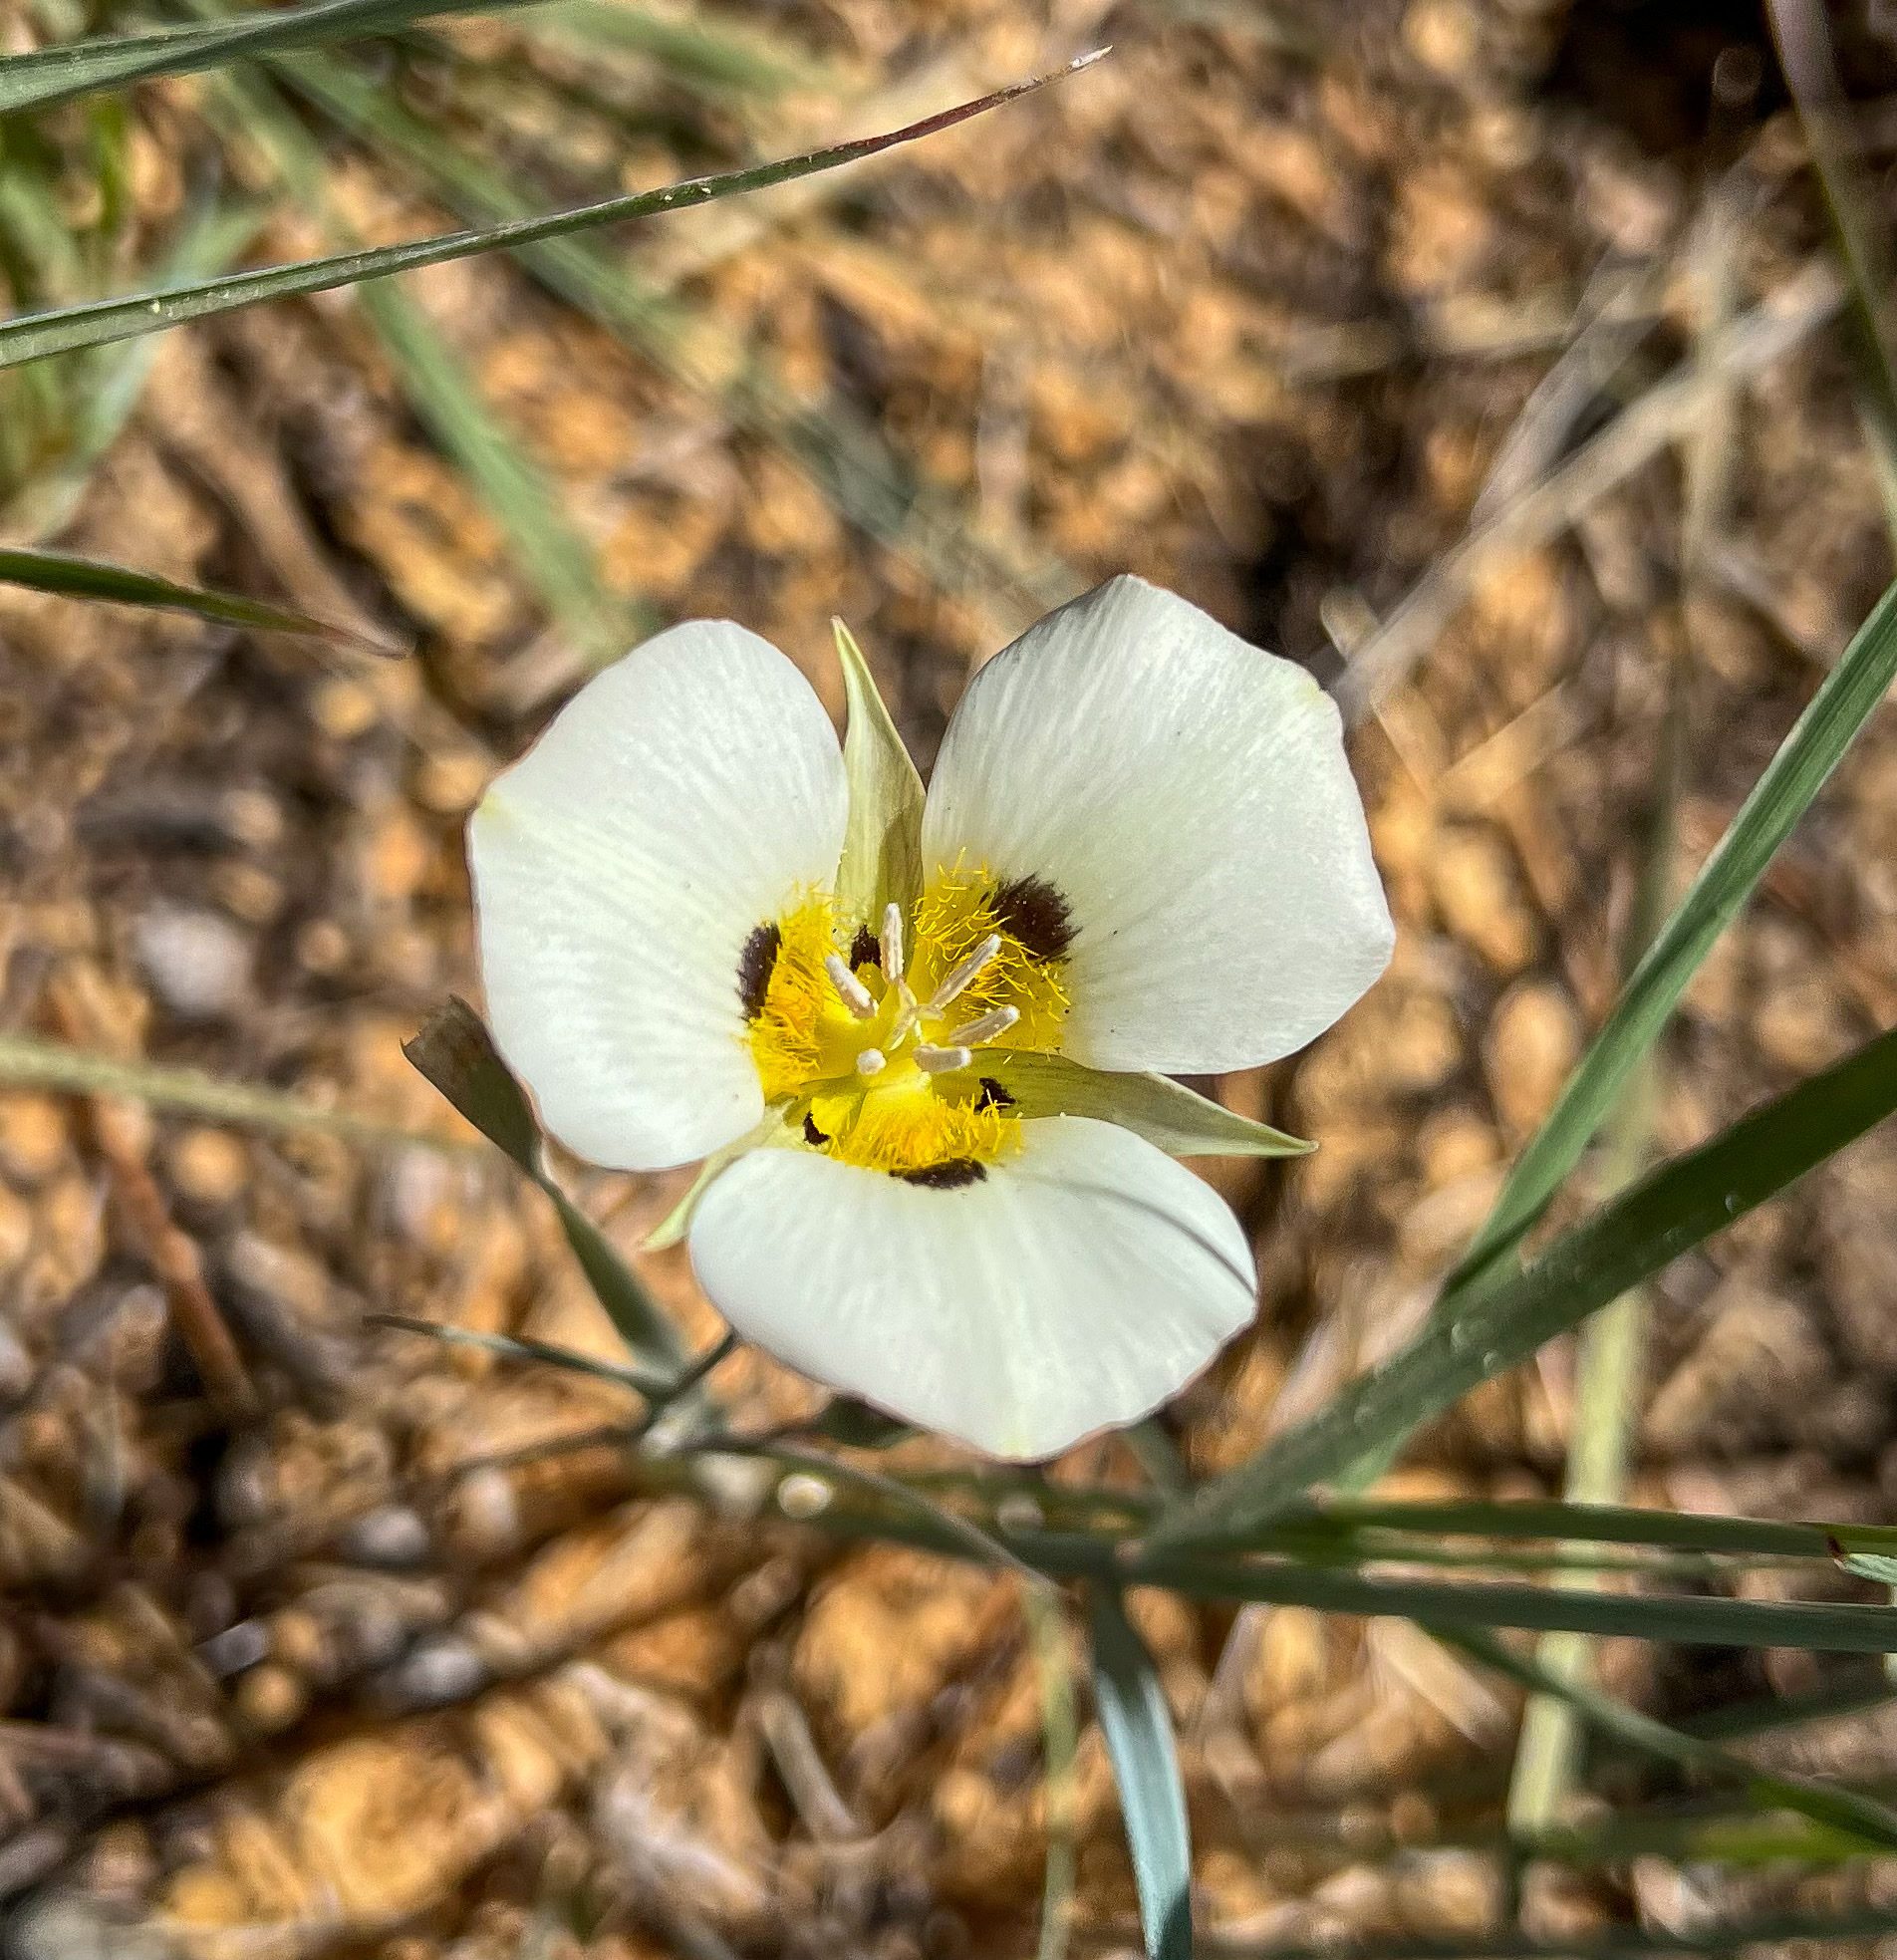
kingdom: Plantae
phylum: Tracheophyta
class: Liliopsida
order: Liliales
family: Liliaceae
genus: Calochortus
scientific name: Calochortus leichtlinii
